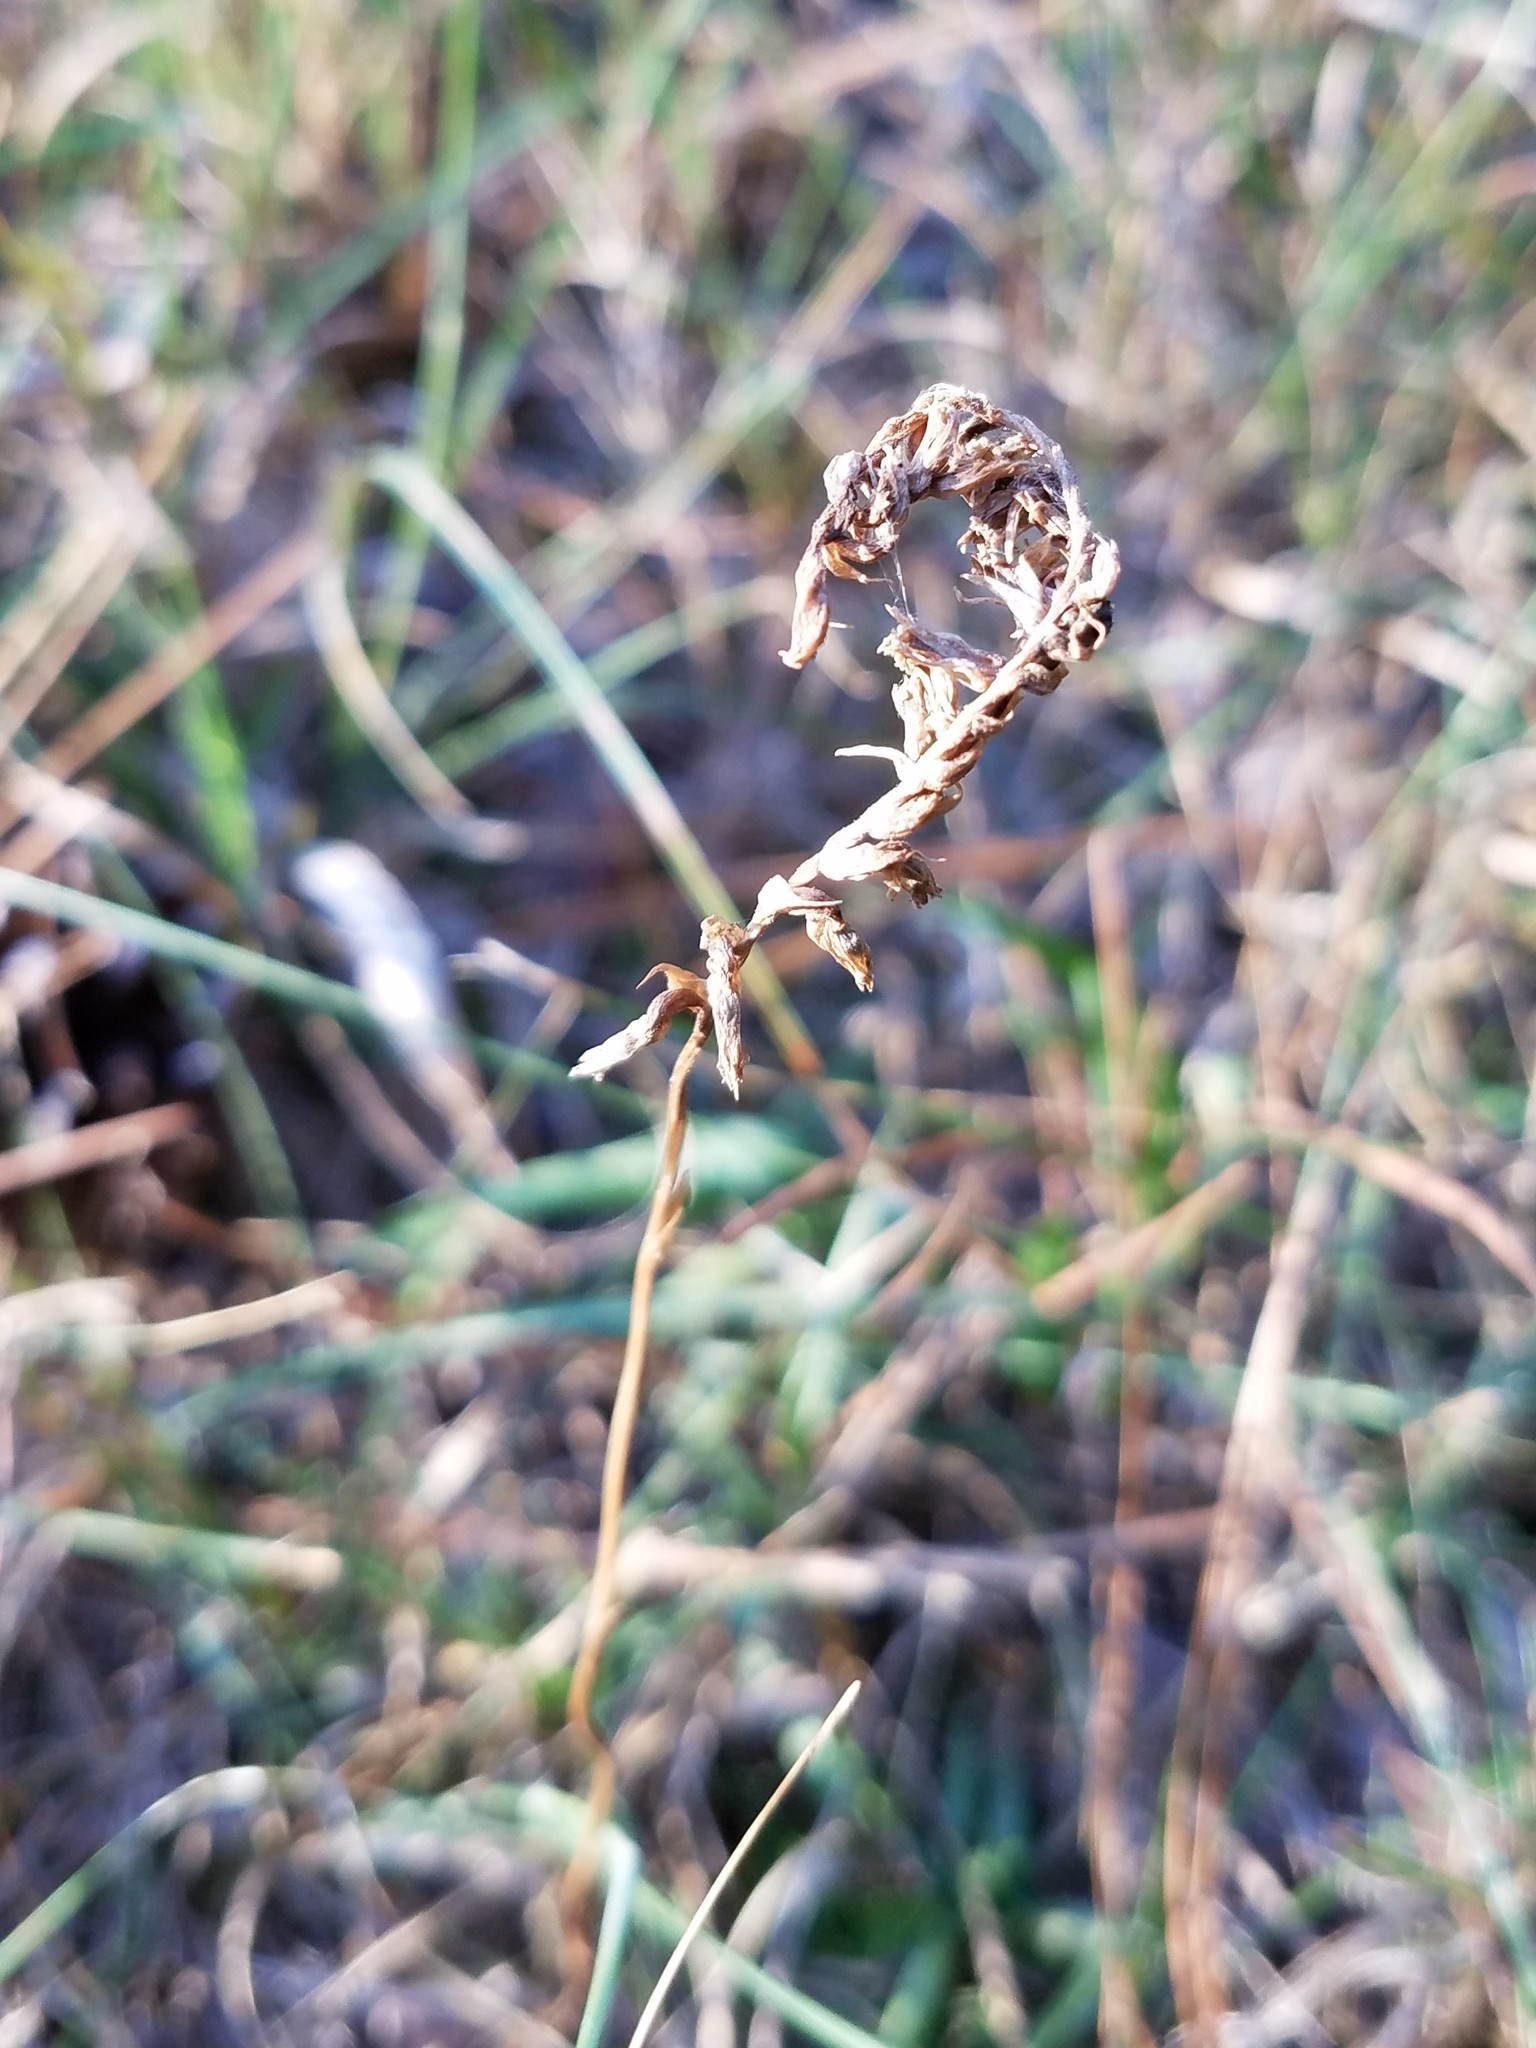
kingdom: Plantae
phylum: Tracheophyta
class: Liliopsida
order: Asparagales
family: Orchidaceae
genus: Spiranthes
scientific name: Spiranthes lacera
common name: Northern slender ladies'-tresses
